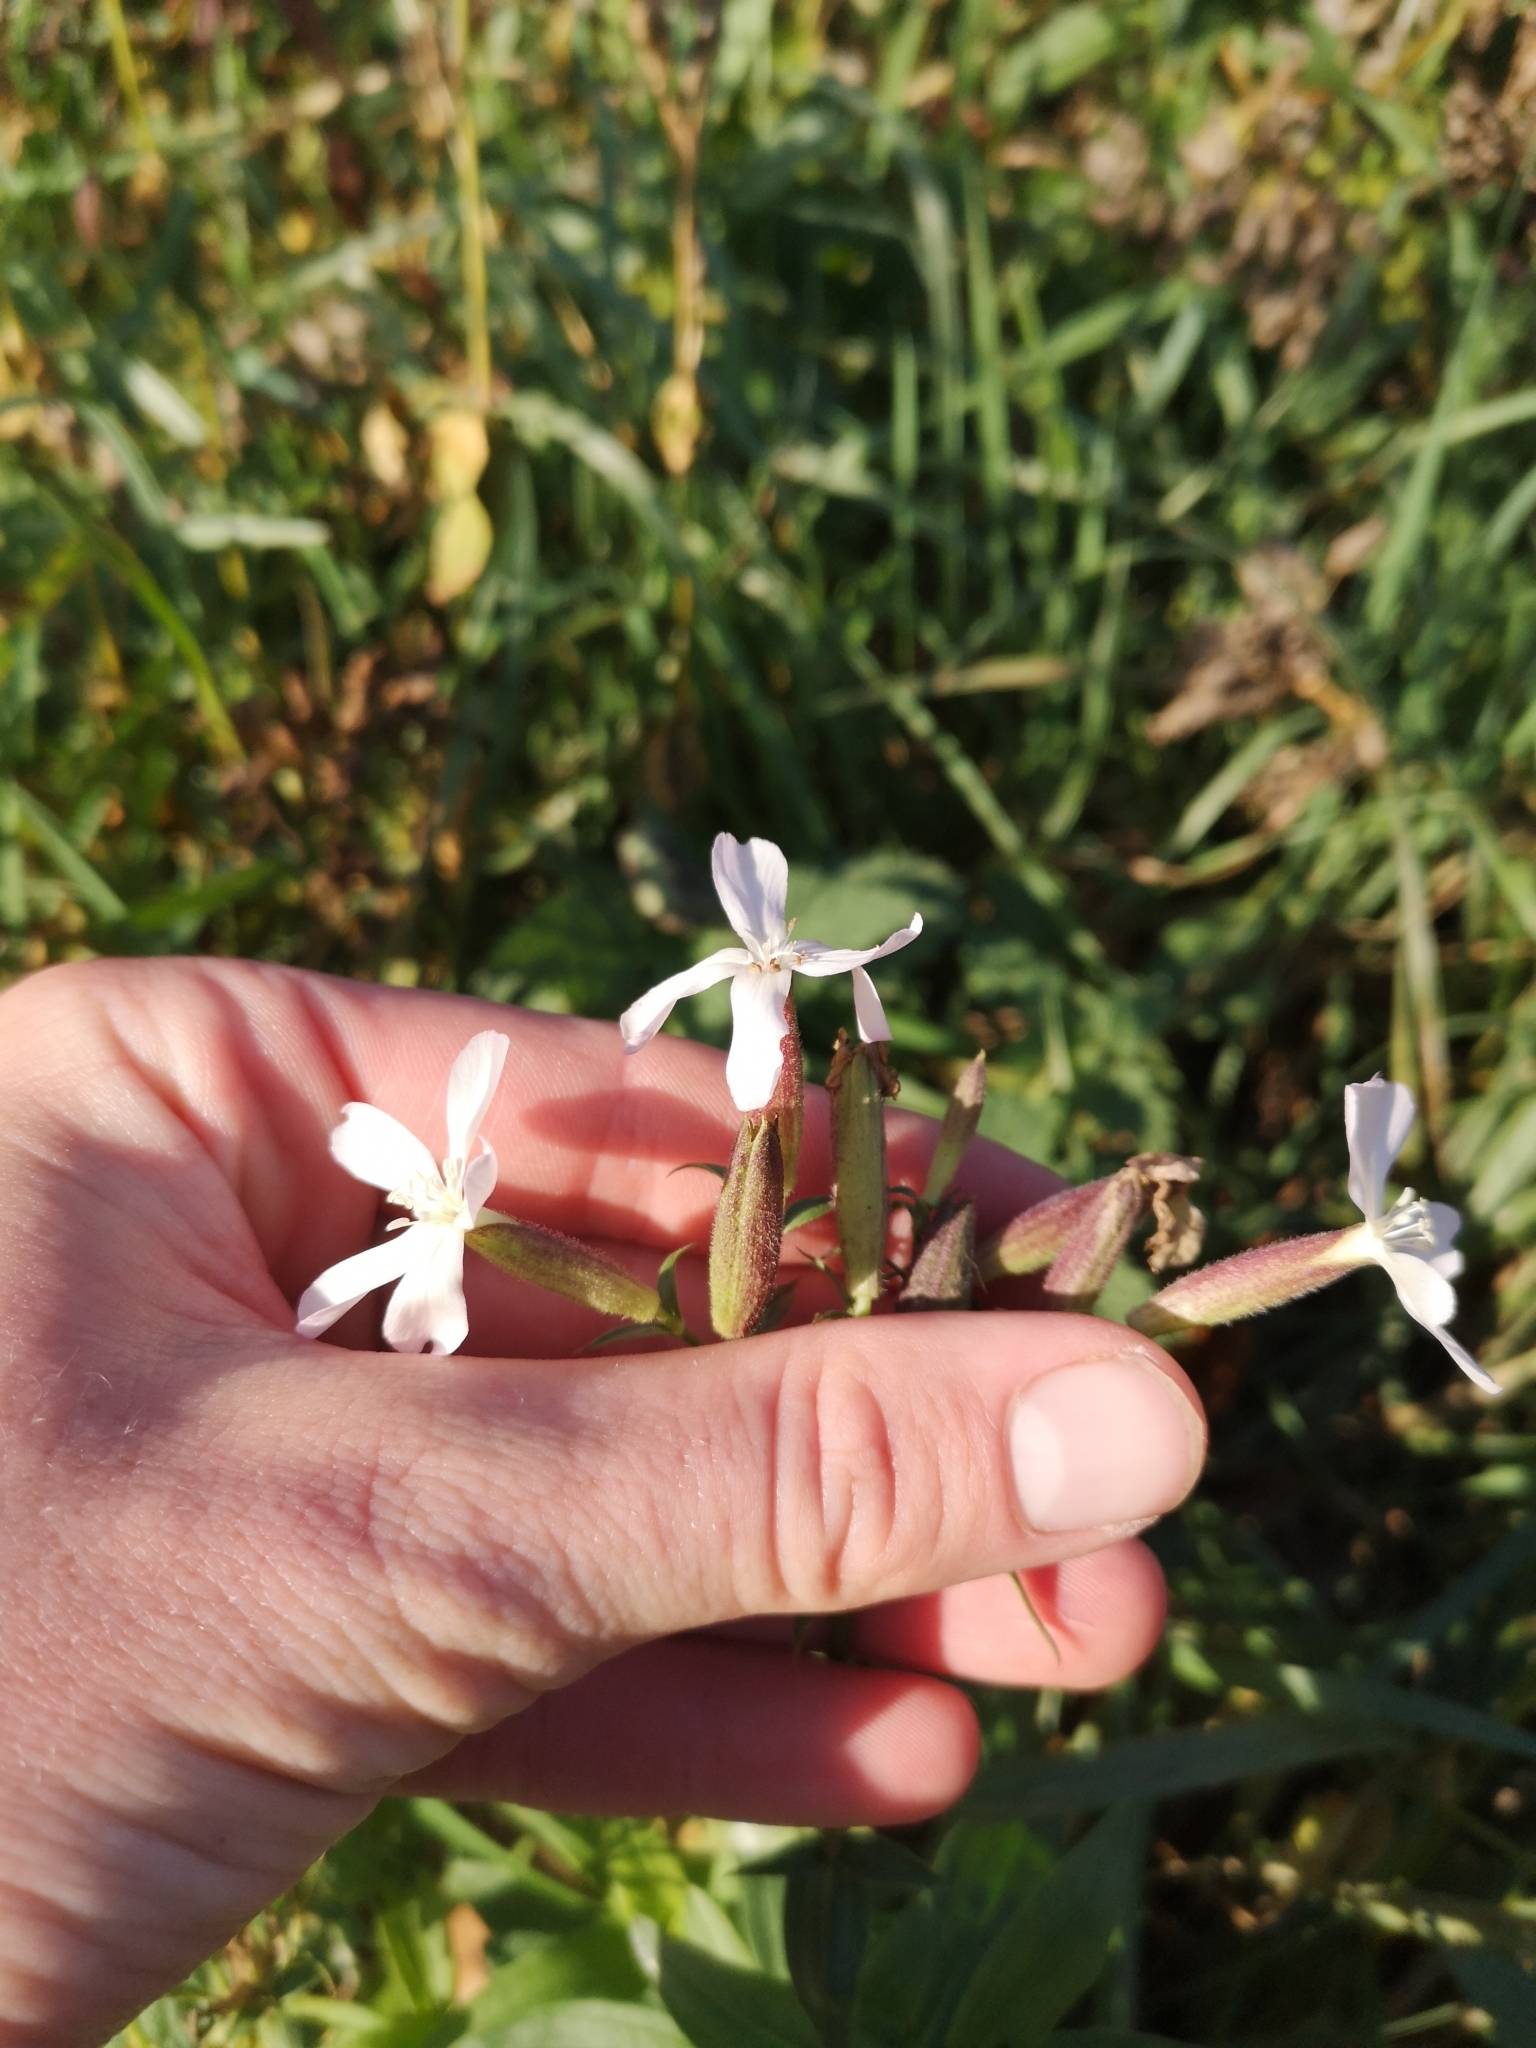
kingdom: Plantae
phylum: Tracheophyta
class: Magnoliopsida
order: Caryophyllales
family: Caryophyllaceae
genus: Saponaria
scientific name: Saponaria officinalis
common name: Soapwort
